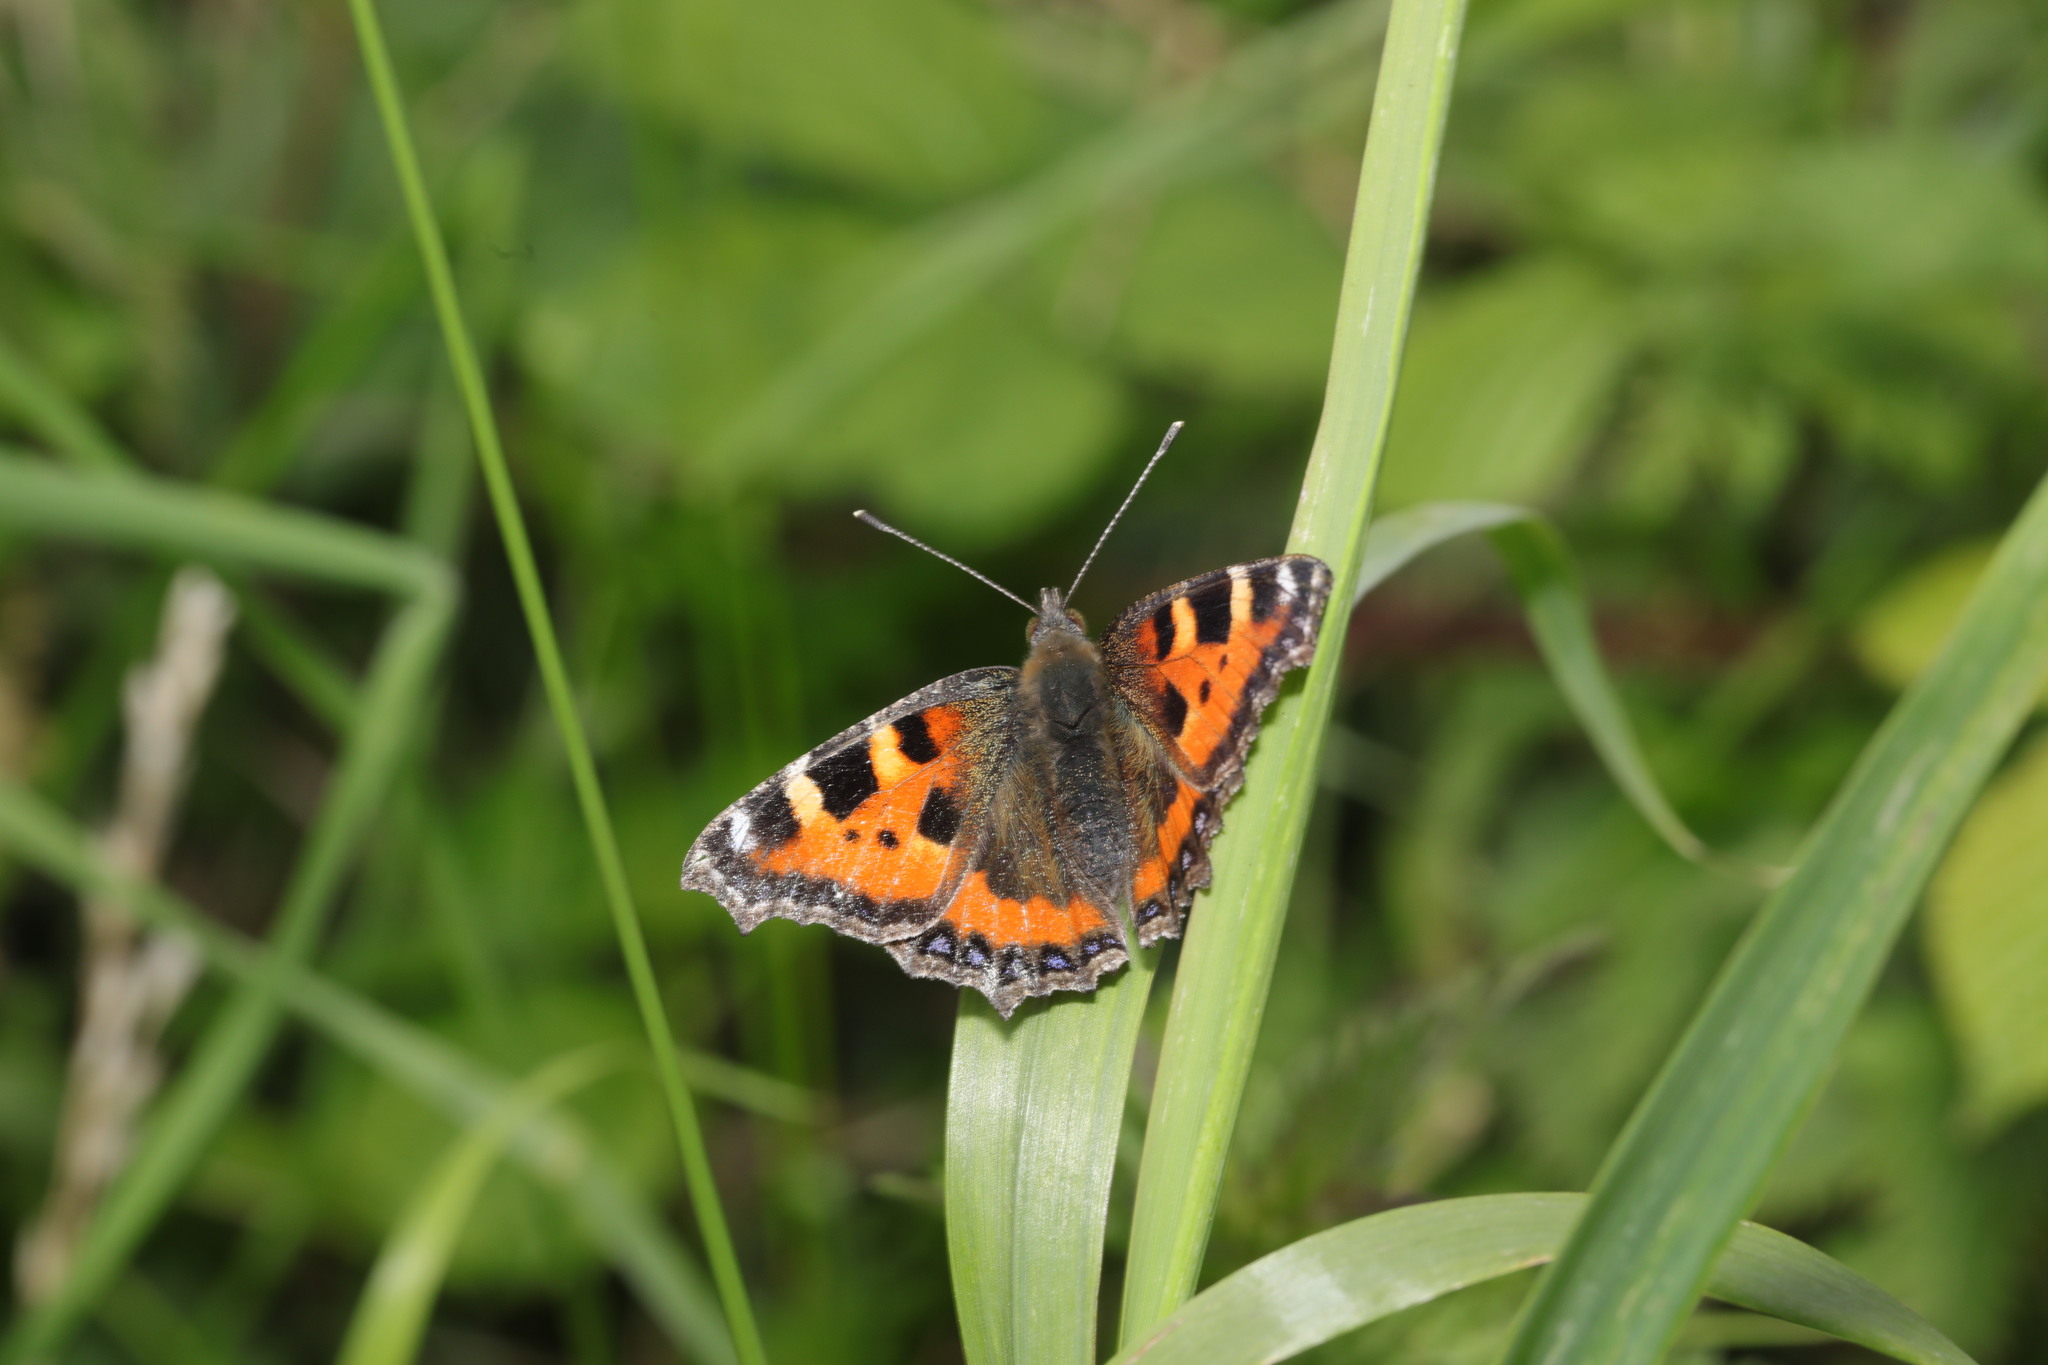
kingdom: Animalia
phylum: Arthropoda
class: Insecta
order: Lepidoptera
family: Nymphalidae
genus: Aglais
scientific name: Aglais urticae
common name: Small tortoiseshell
